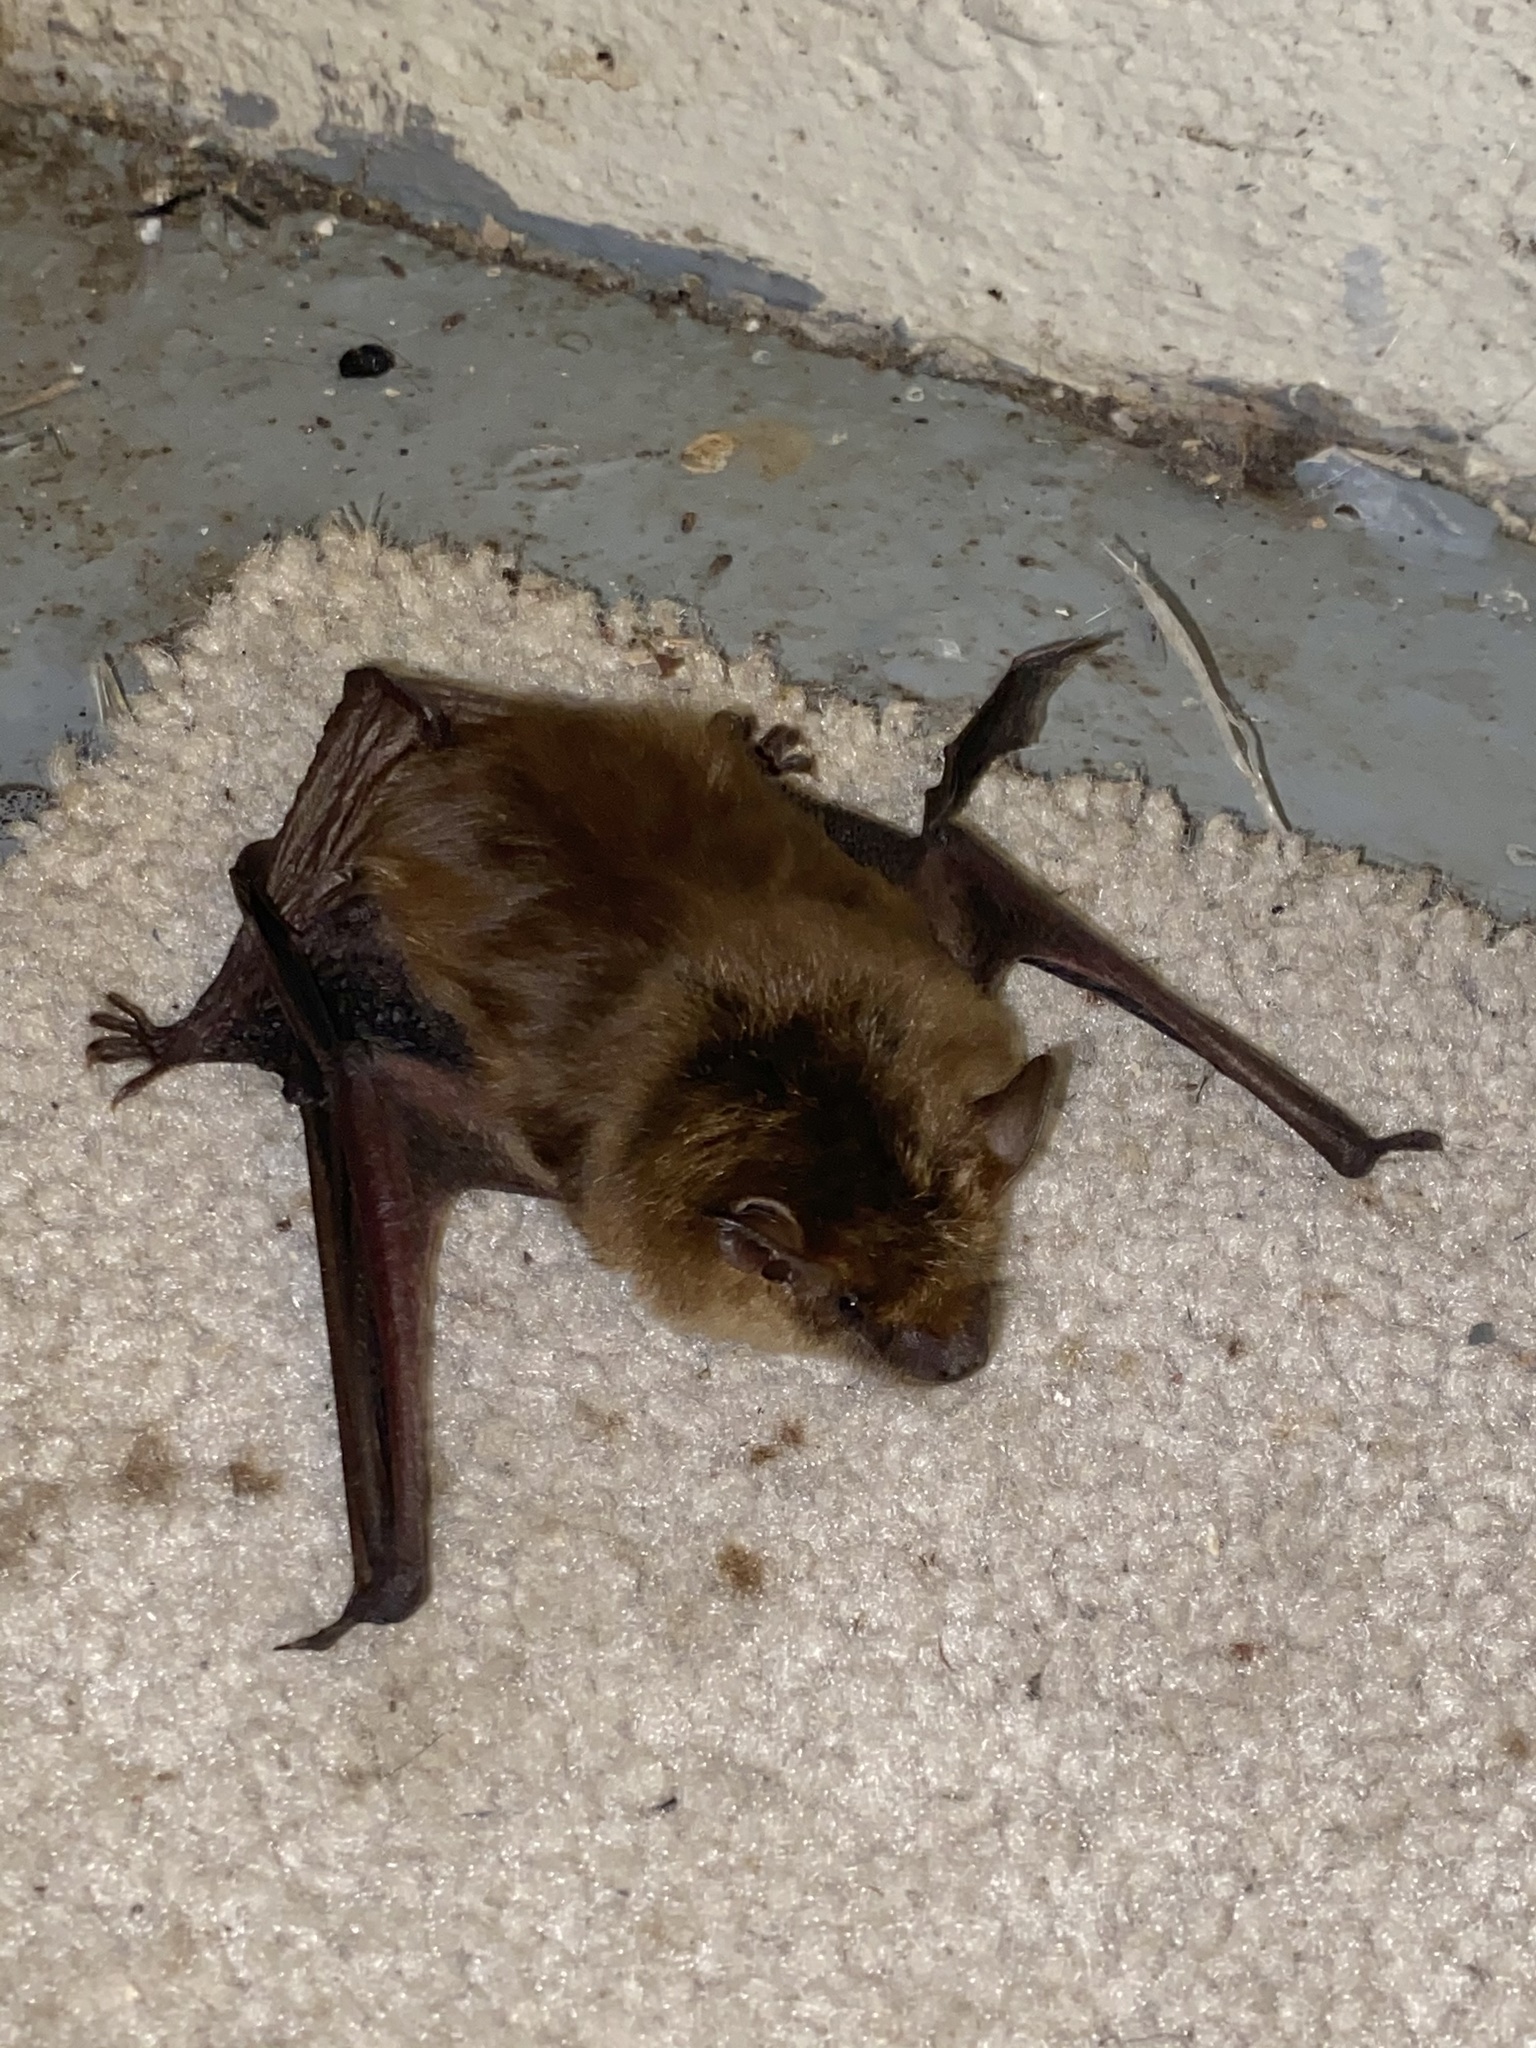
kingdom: Animalia
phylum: Chordata
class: Mammalia
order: Chiroptera
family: Vespertilionidae
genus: Eptesicus
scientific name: Eptesicus fuscus
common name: Big brown bat
